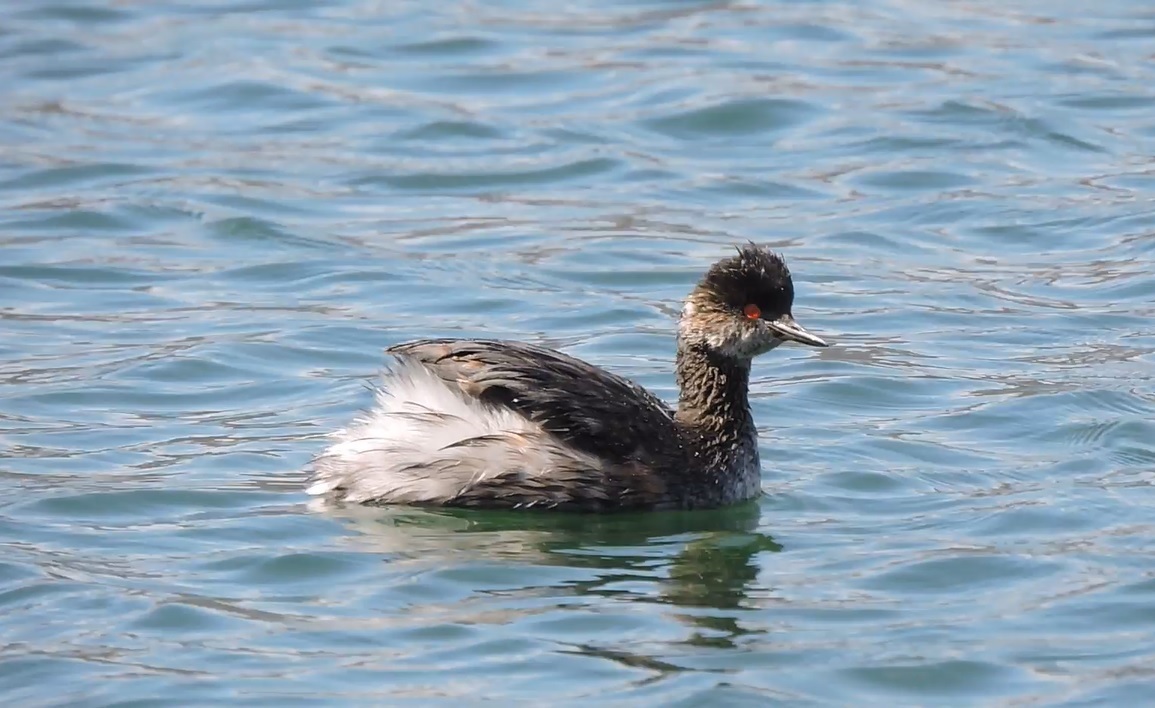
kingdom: Animalia
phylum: Chordata
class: Aves
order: Podicipediformes
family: Podicipedidae
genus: Podiceps
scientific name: Podiceps nigricollis
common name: Black-necked grebe
